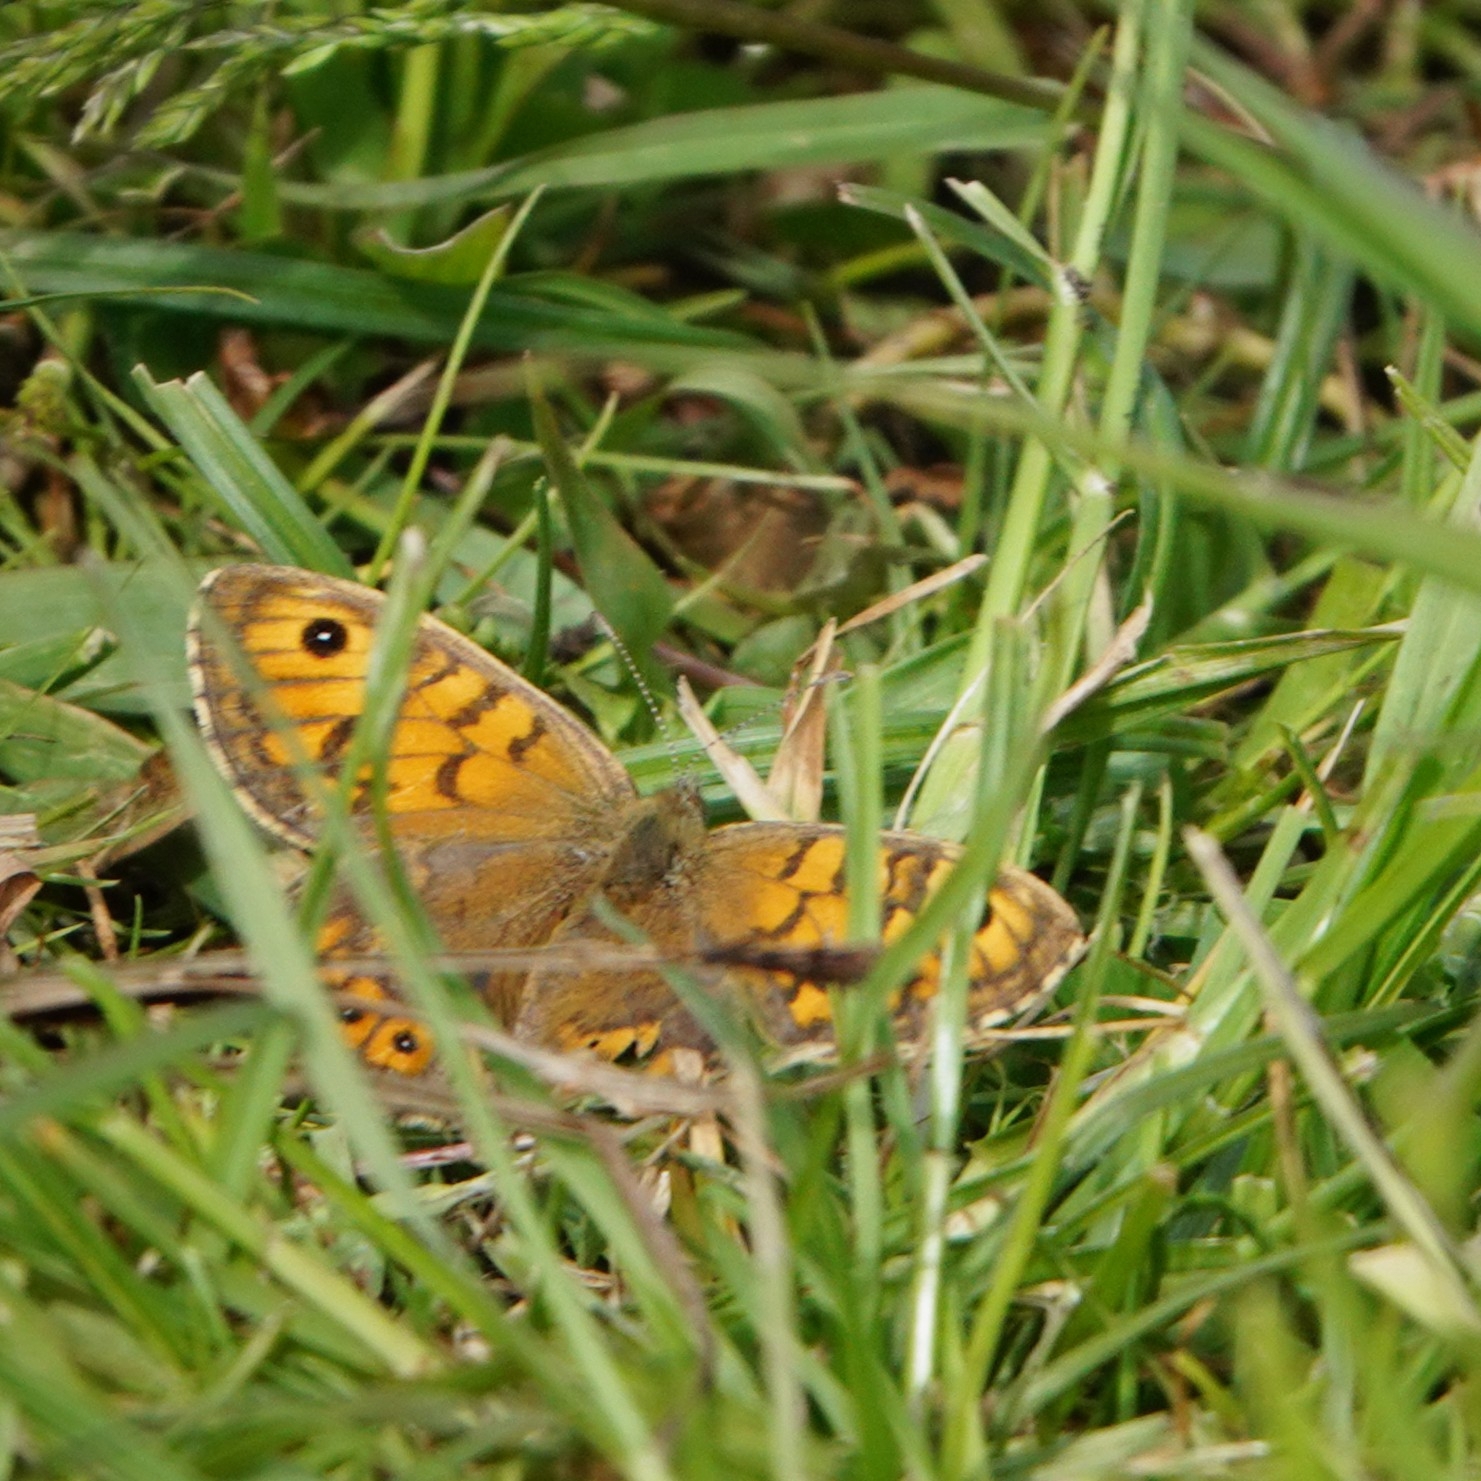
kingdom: Animalia
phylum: Arthropoda
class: Insecta
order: Lepidoptera
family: Nymphalidae
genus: Pararge
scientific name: Pararge Lasiommata megera
